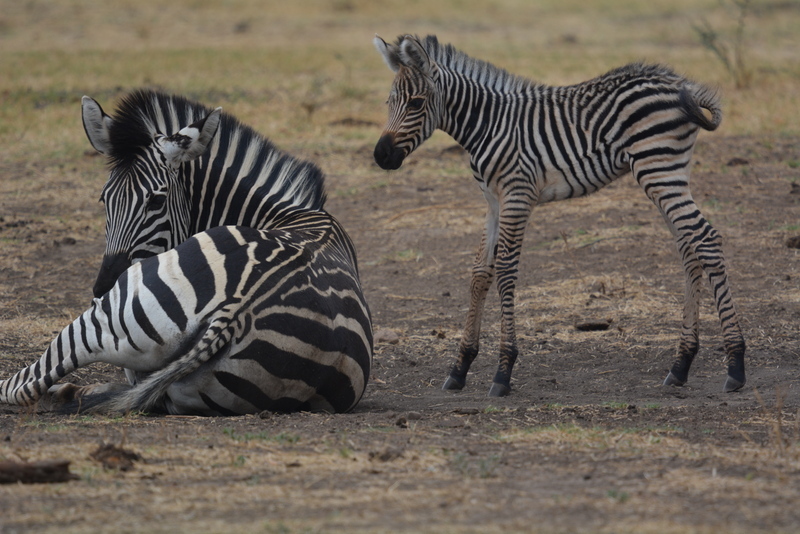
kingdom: Animalia
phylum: Chordata
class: Mammalia
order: Perissodactyla
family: Equidae
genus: Equus
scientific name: Equus quagga
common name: Plains zebra
